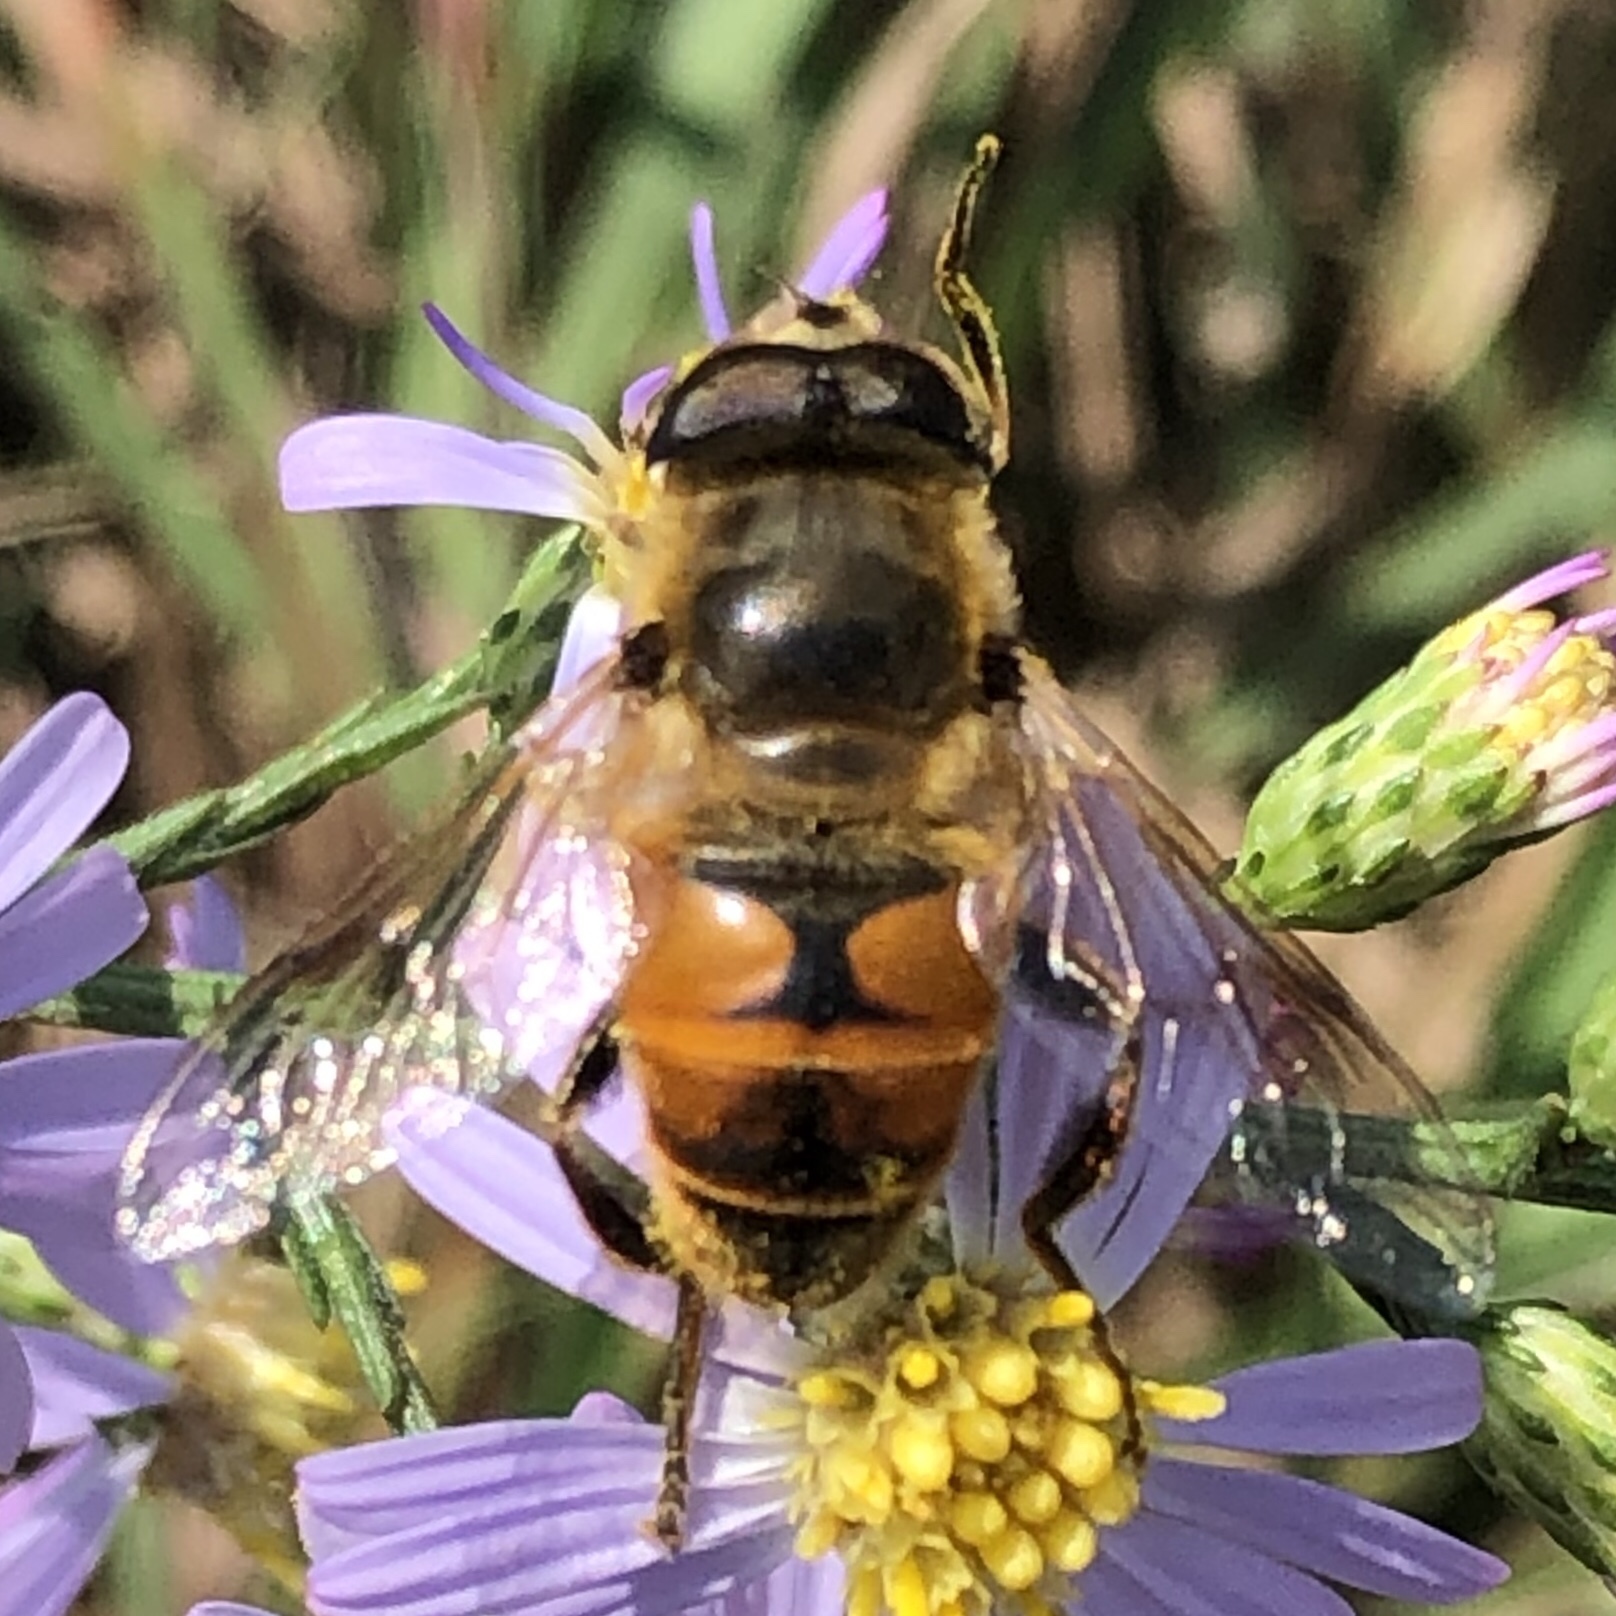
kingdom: Animalia
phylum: Arthropoda
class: Insecta
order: Diptera
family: Syrphidae
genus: Eristalis
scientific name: Eristalis tenax
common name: Drone fly
